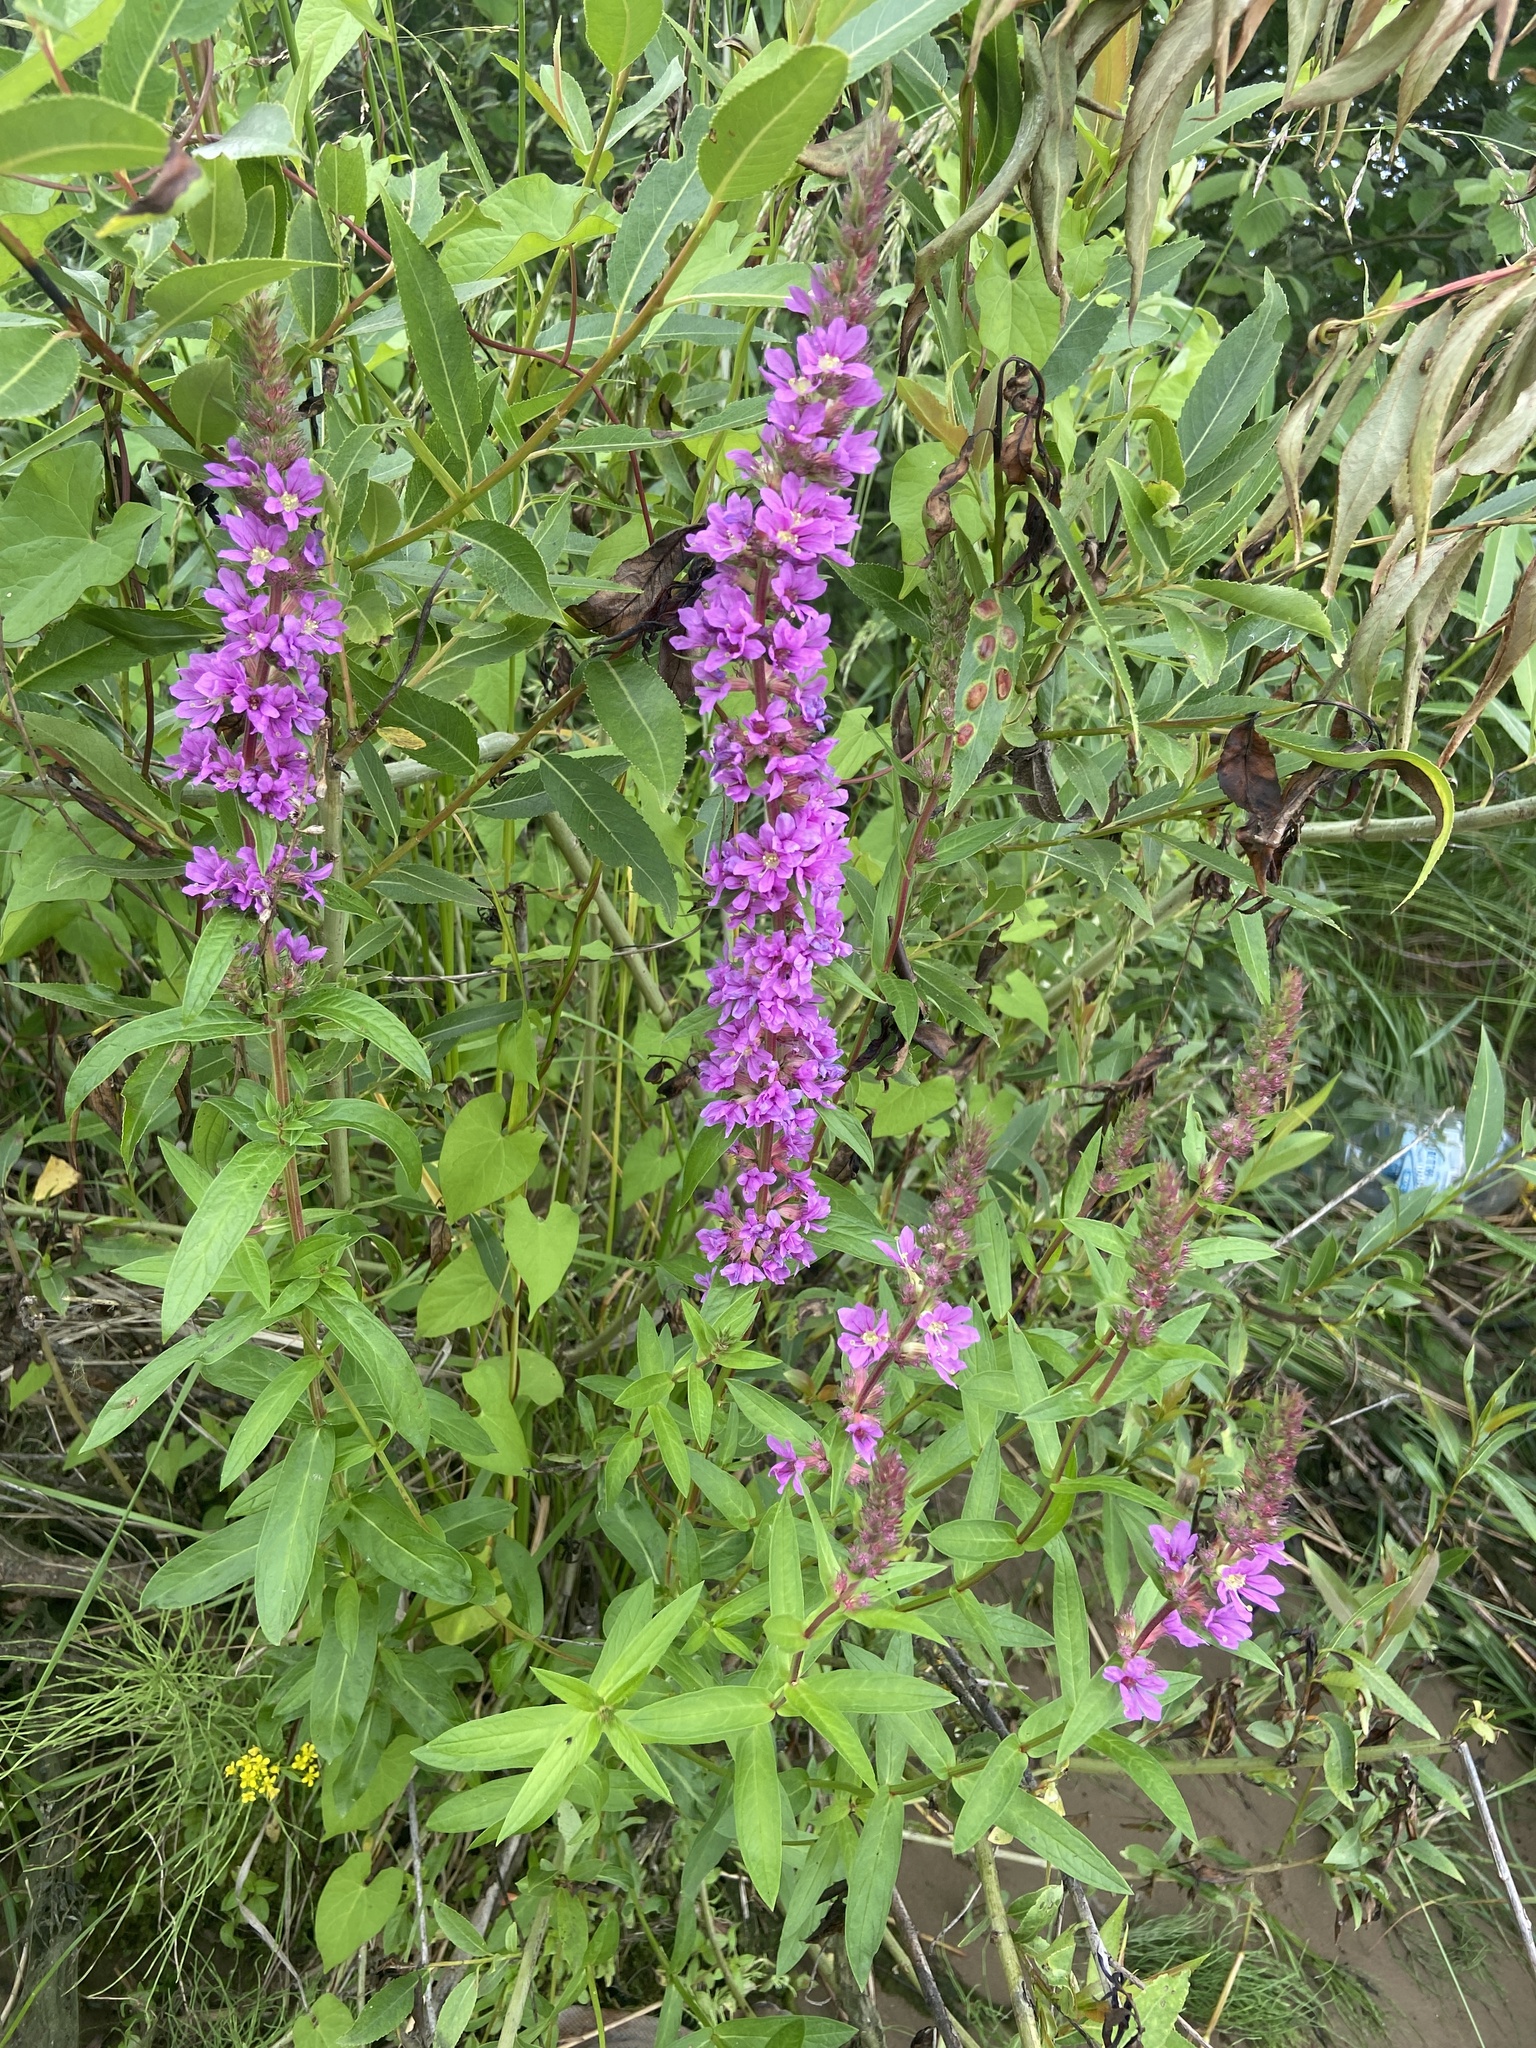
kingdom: Plantae
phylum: Tracheophyta
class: Magnoliopsida
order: Myrtales
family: Lythraceae
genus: Lythrum
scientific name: Lythrum salicaria
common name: Purple loosestrife
